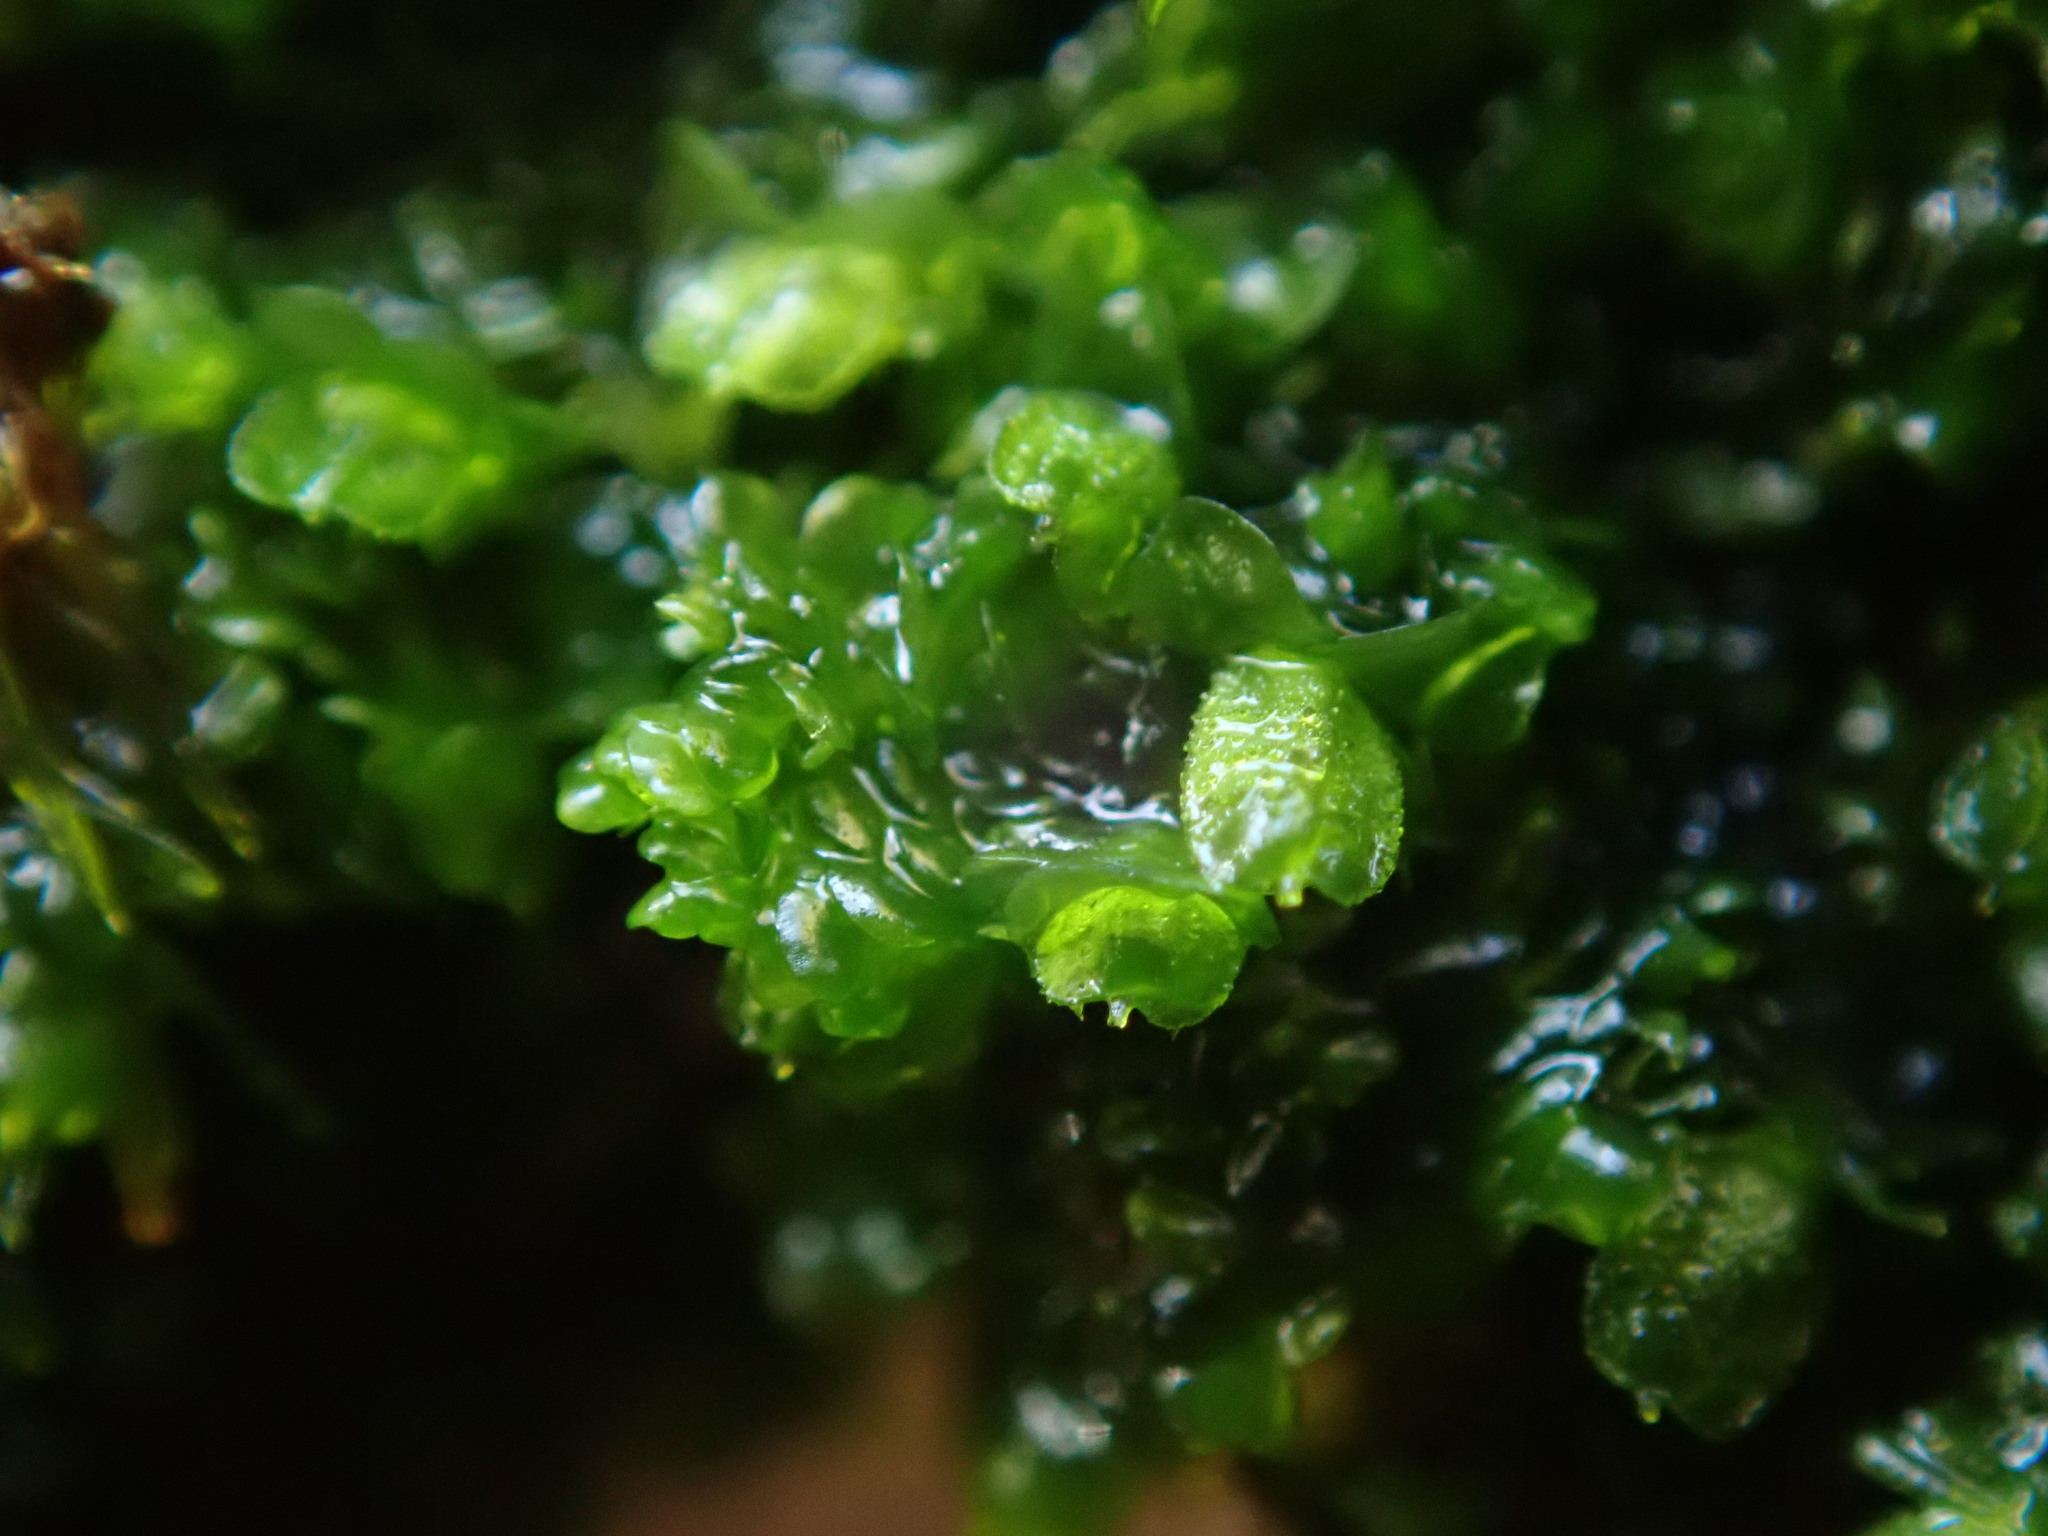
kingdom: Plantae
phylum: Marchantiophyta
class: Jungermanniopsida
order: Porellales
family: Frullaniaceae
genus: Frullania
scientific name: Frullania dilatata
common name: Dilated scalewort
